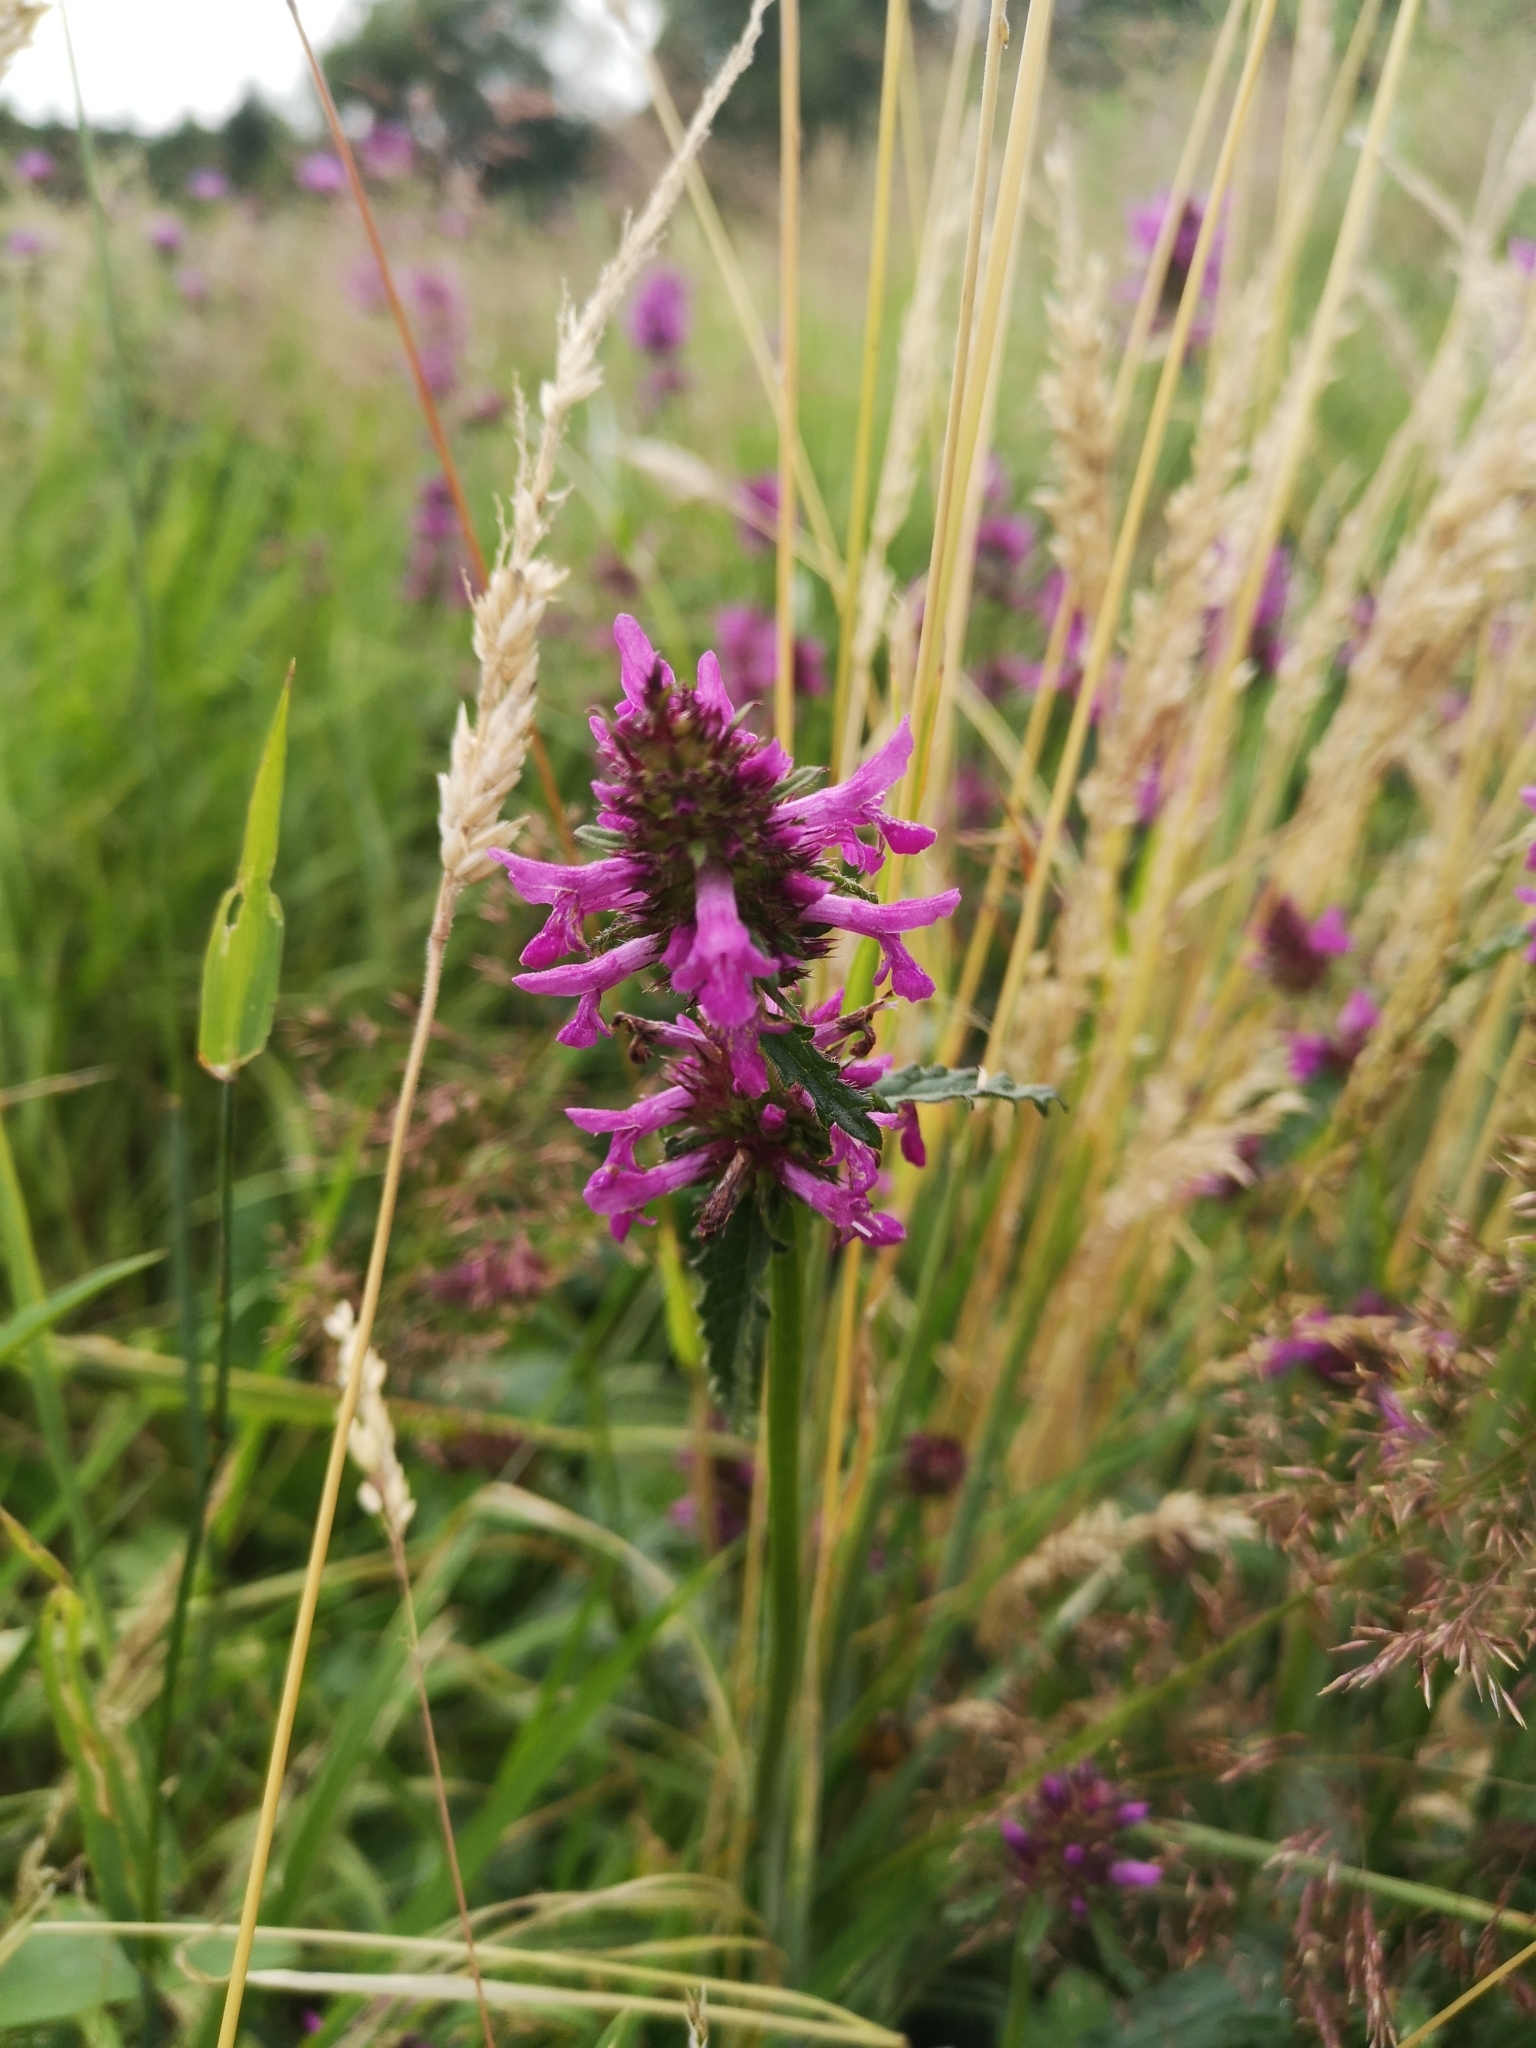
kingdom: Plantae
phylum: Tracheophyta
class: Magnoliopsida
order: Lamiales
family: Lamiaceae
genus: Betonica
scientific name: Betonica officinalis
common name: Bishop's-wort
